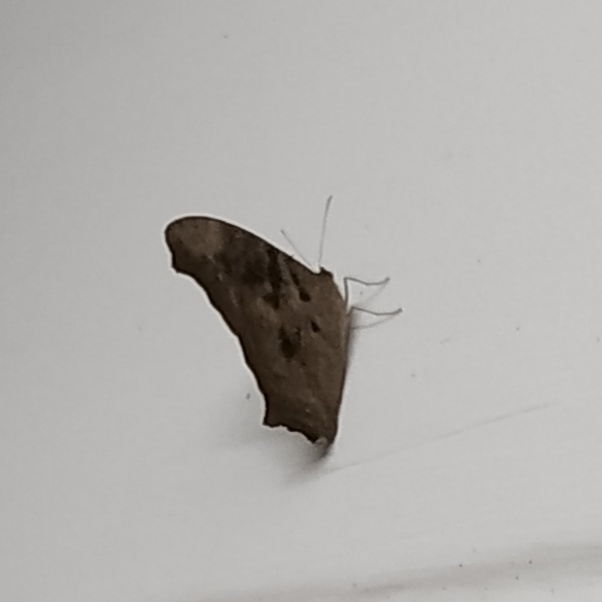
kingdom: Animalia
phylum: Arthropoda
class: Insecta
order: Lepidoptera
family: Nymphalidae
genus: Melanitis
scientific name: Melanitis leda
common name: Twilight brown
